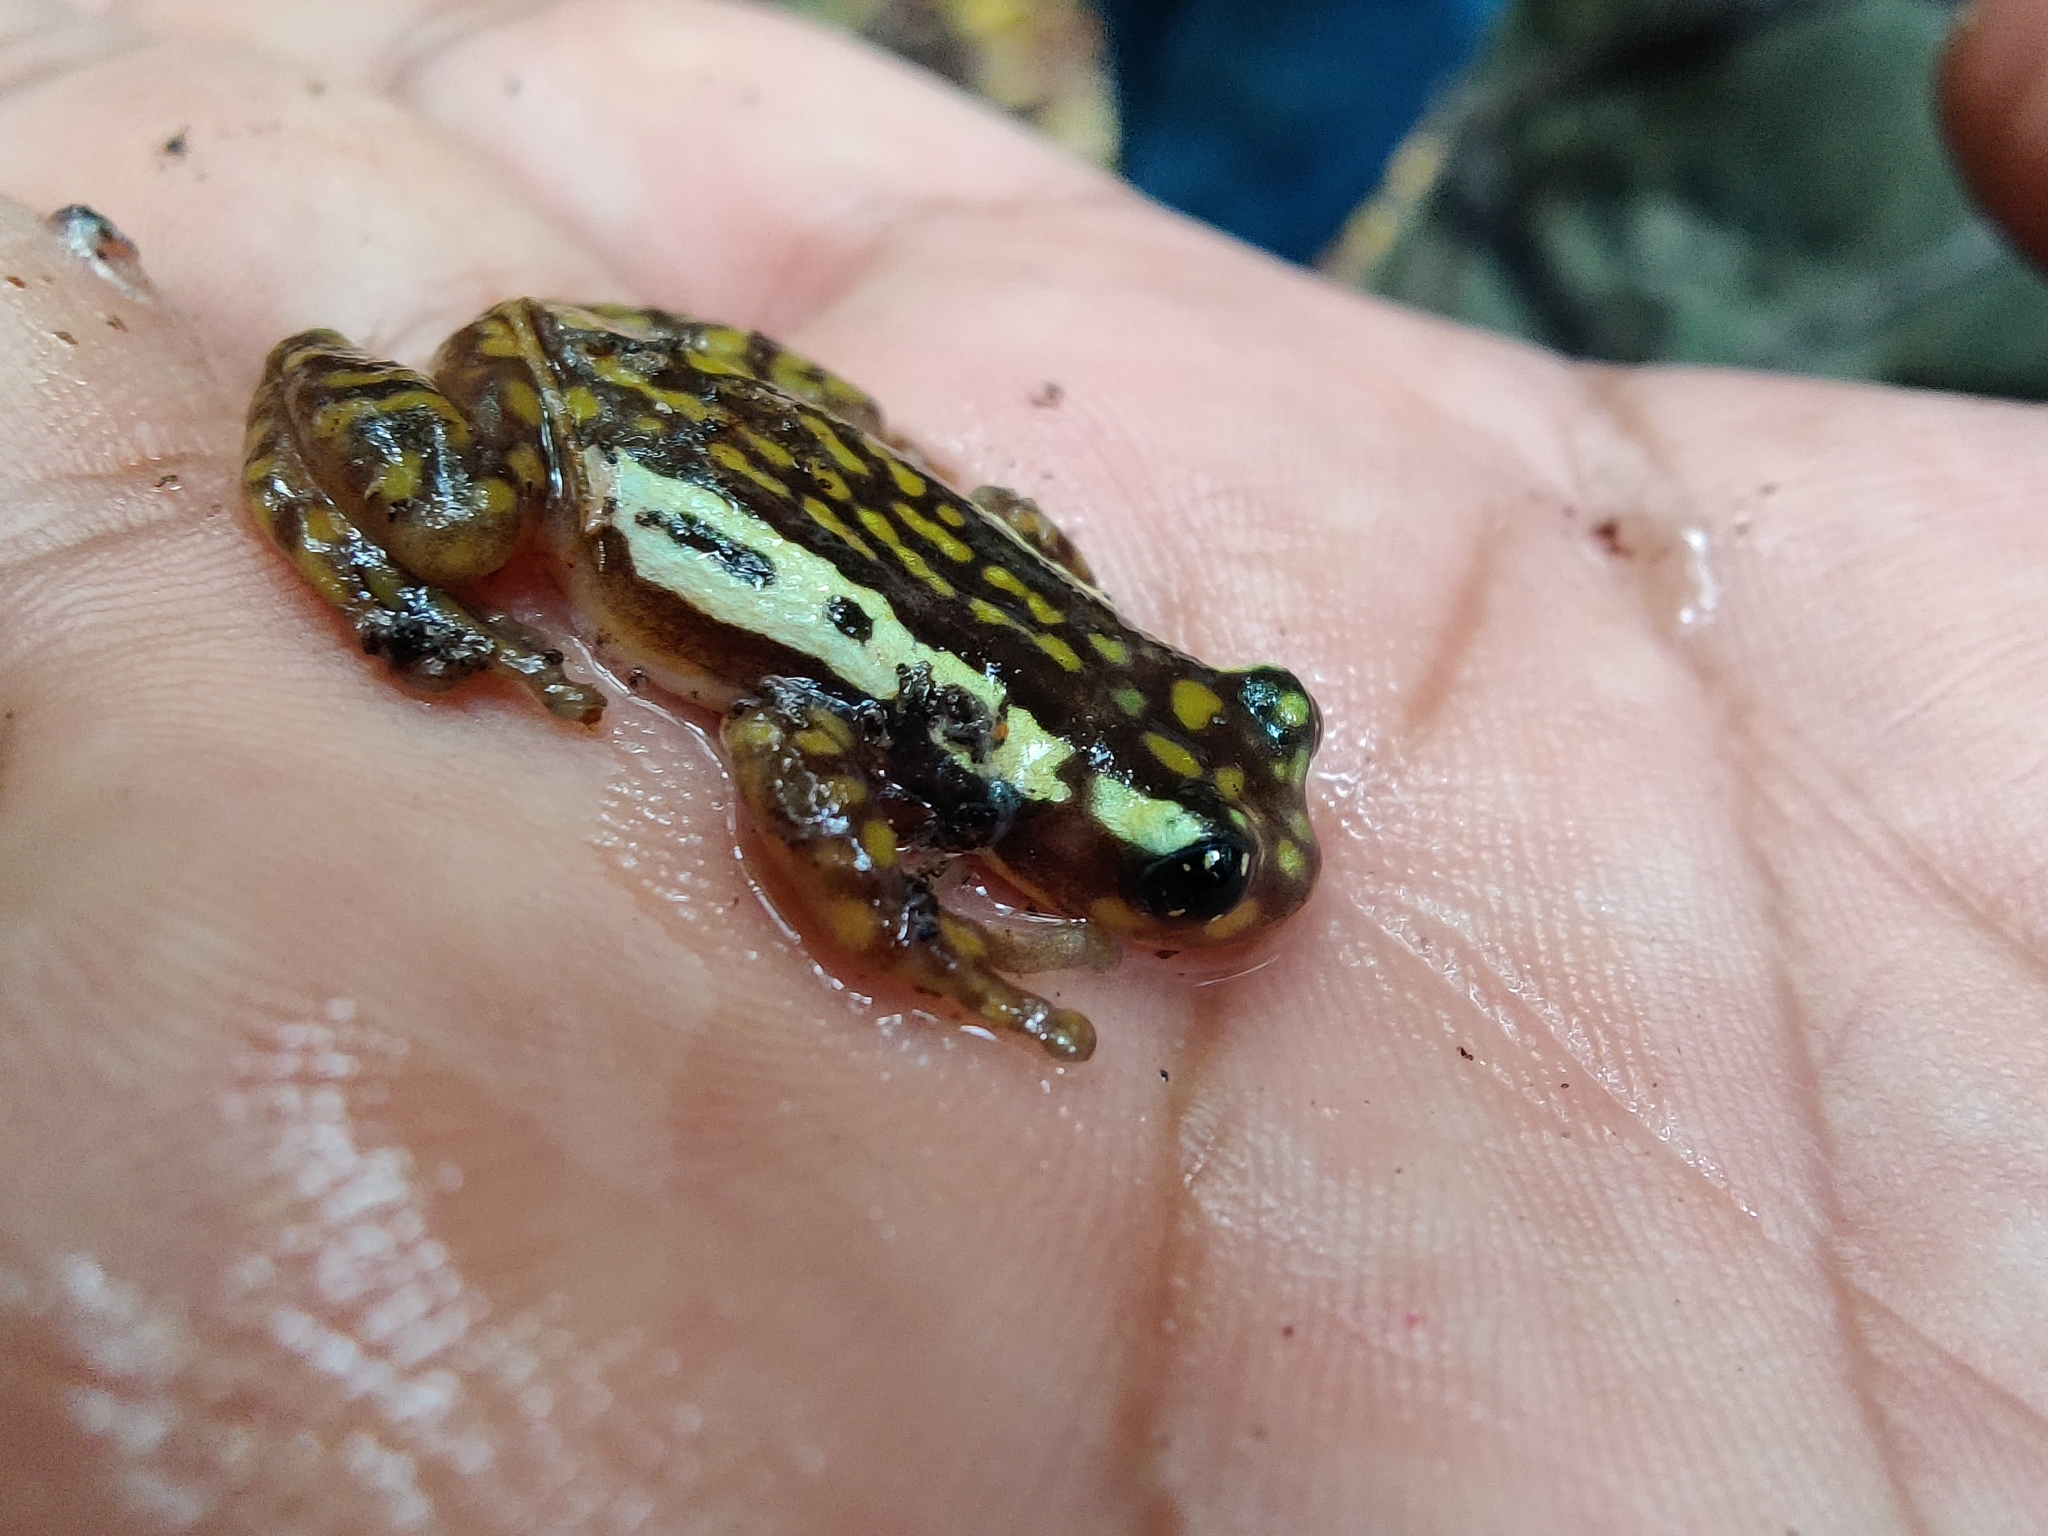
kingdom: Animalia
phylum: Chordata
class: Amphibia
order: Anura
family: Rhacophoridae
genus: Raorchestes
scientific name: Raorchestes ochlandrae
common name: Ochlandrae reed frog
